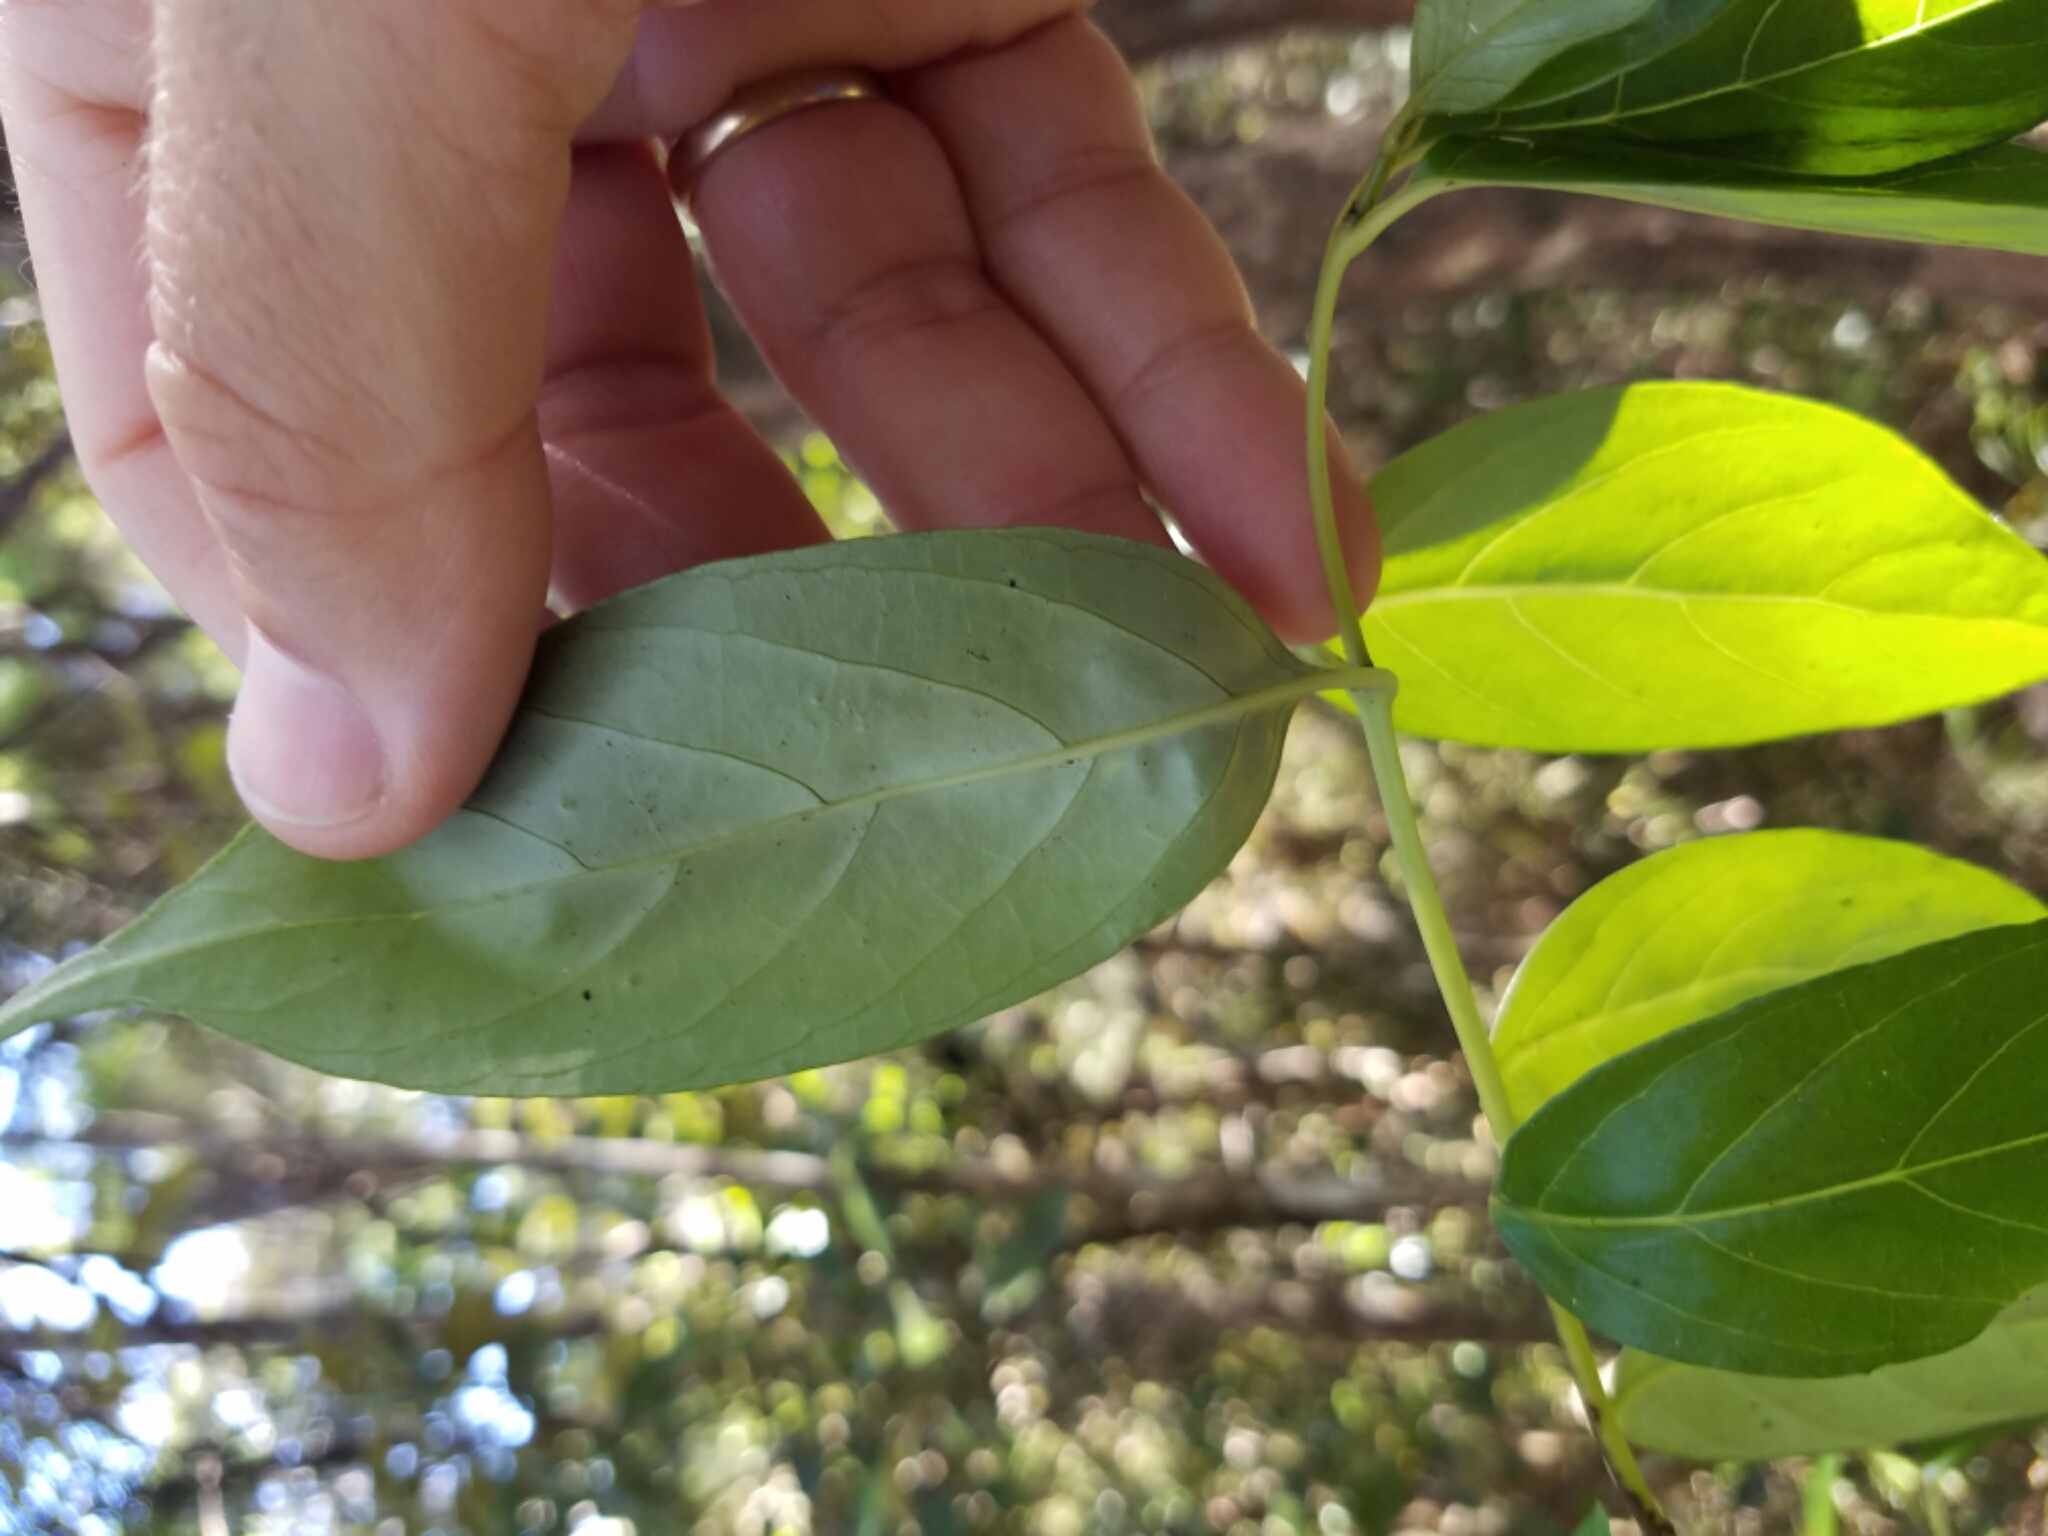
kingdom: Plantae
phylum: Tracheophyta
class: Magnoliopsida
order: Gentianales
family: Loganiaceae
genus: Geniostoma
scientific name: Geniostoma ligustrifolium
